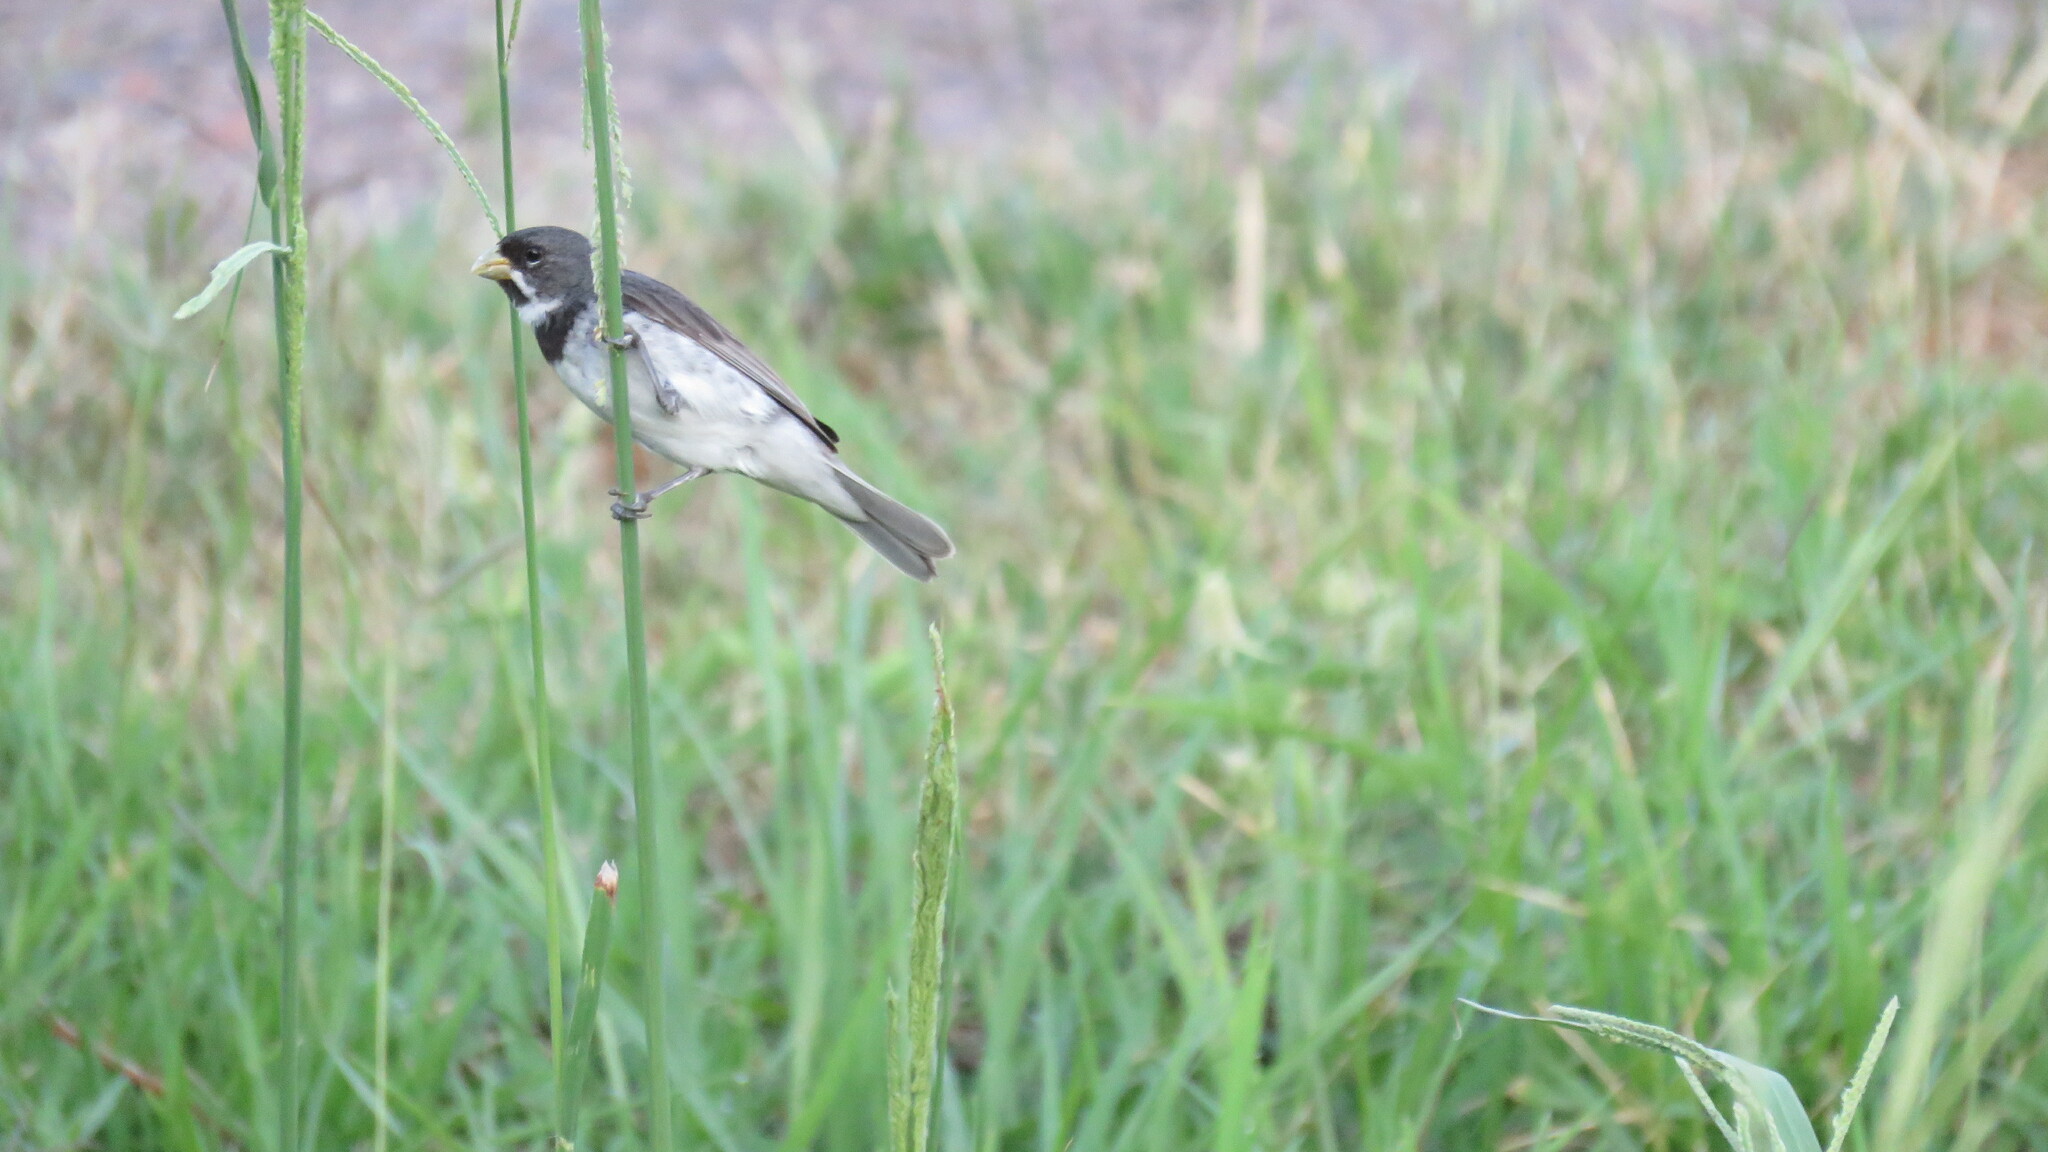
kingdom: Animalia
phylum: Chordata
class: Aves
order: Passeriformes
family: Thraupidae
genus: Sporophila
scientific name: Sporophila caerulescens
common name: Double-collared seedeater
